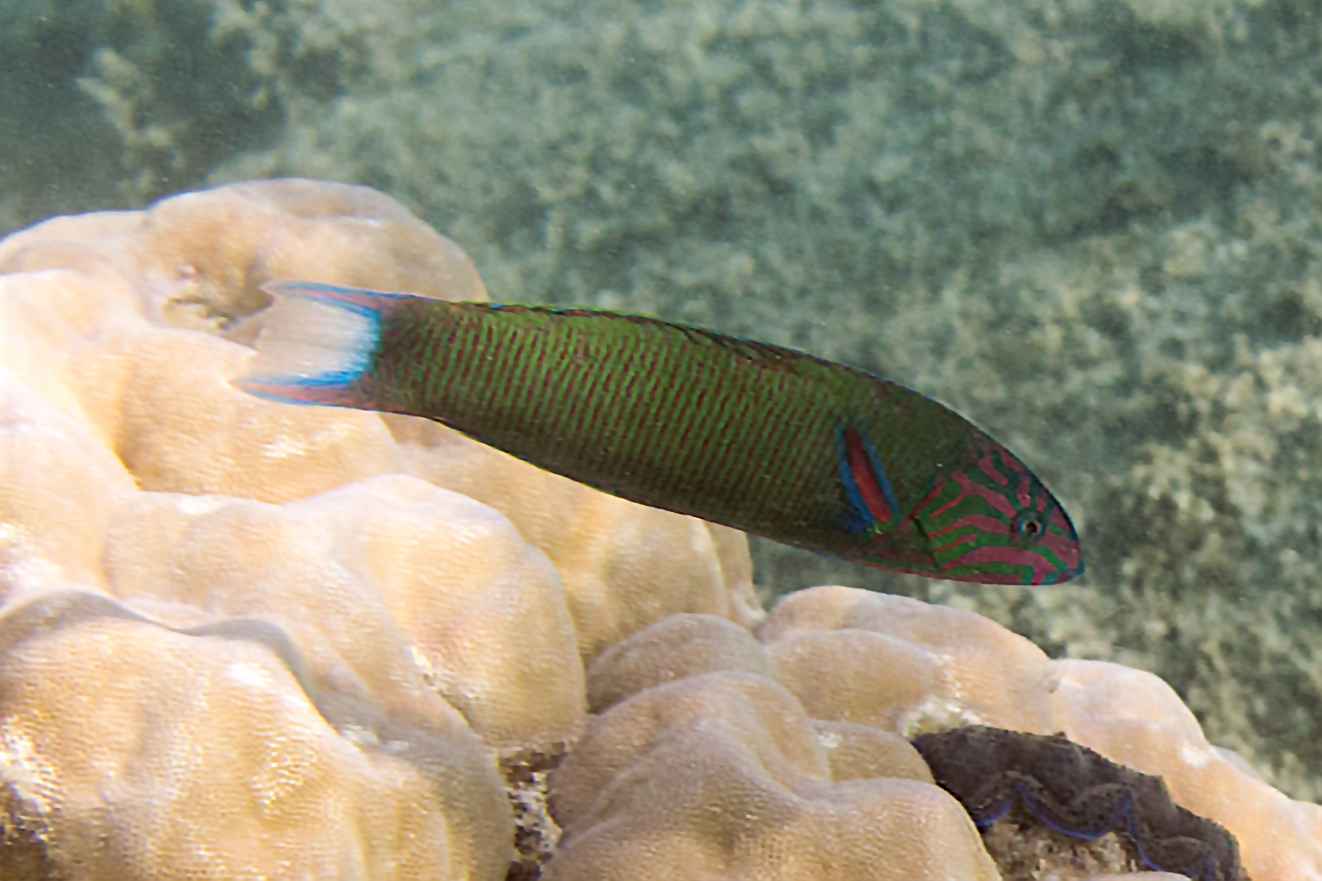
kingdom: Animalia
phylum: Chordata
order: Perciformes
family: Labridae
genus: Thalassoma
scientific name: Thalassoma lunare
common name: Blue wrasse
